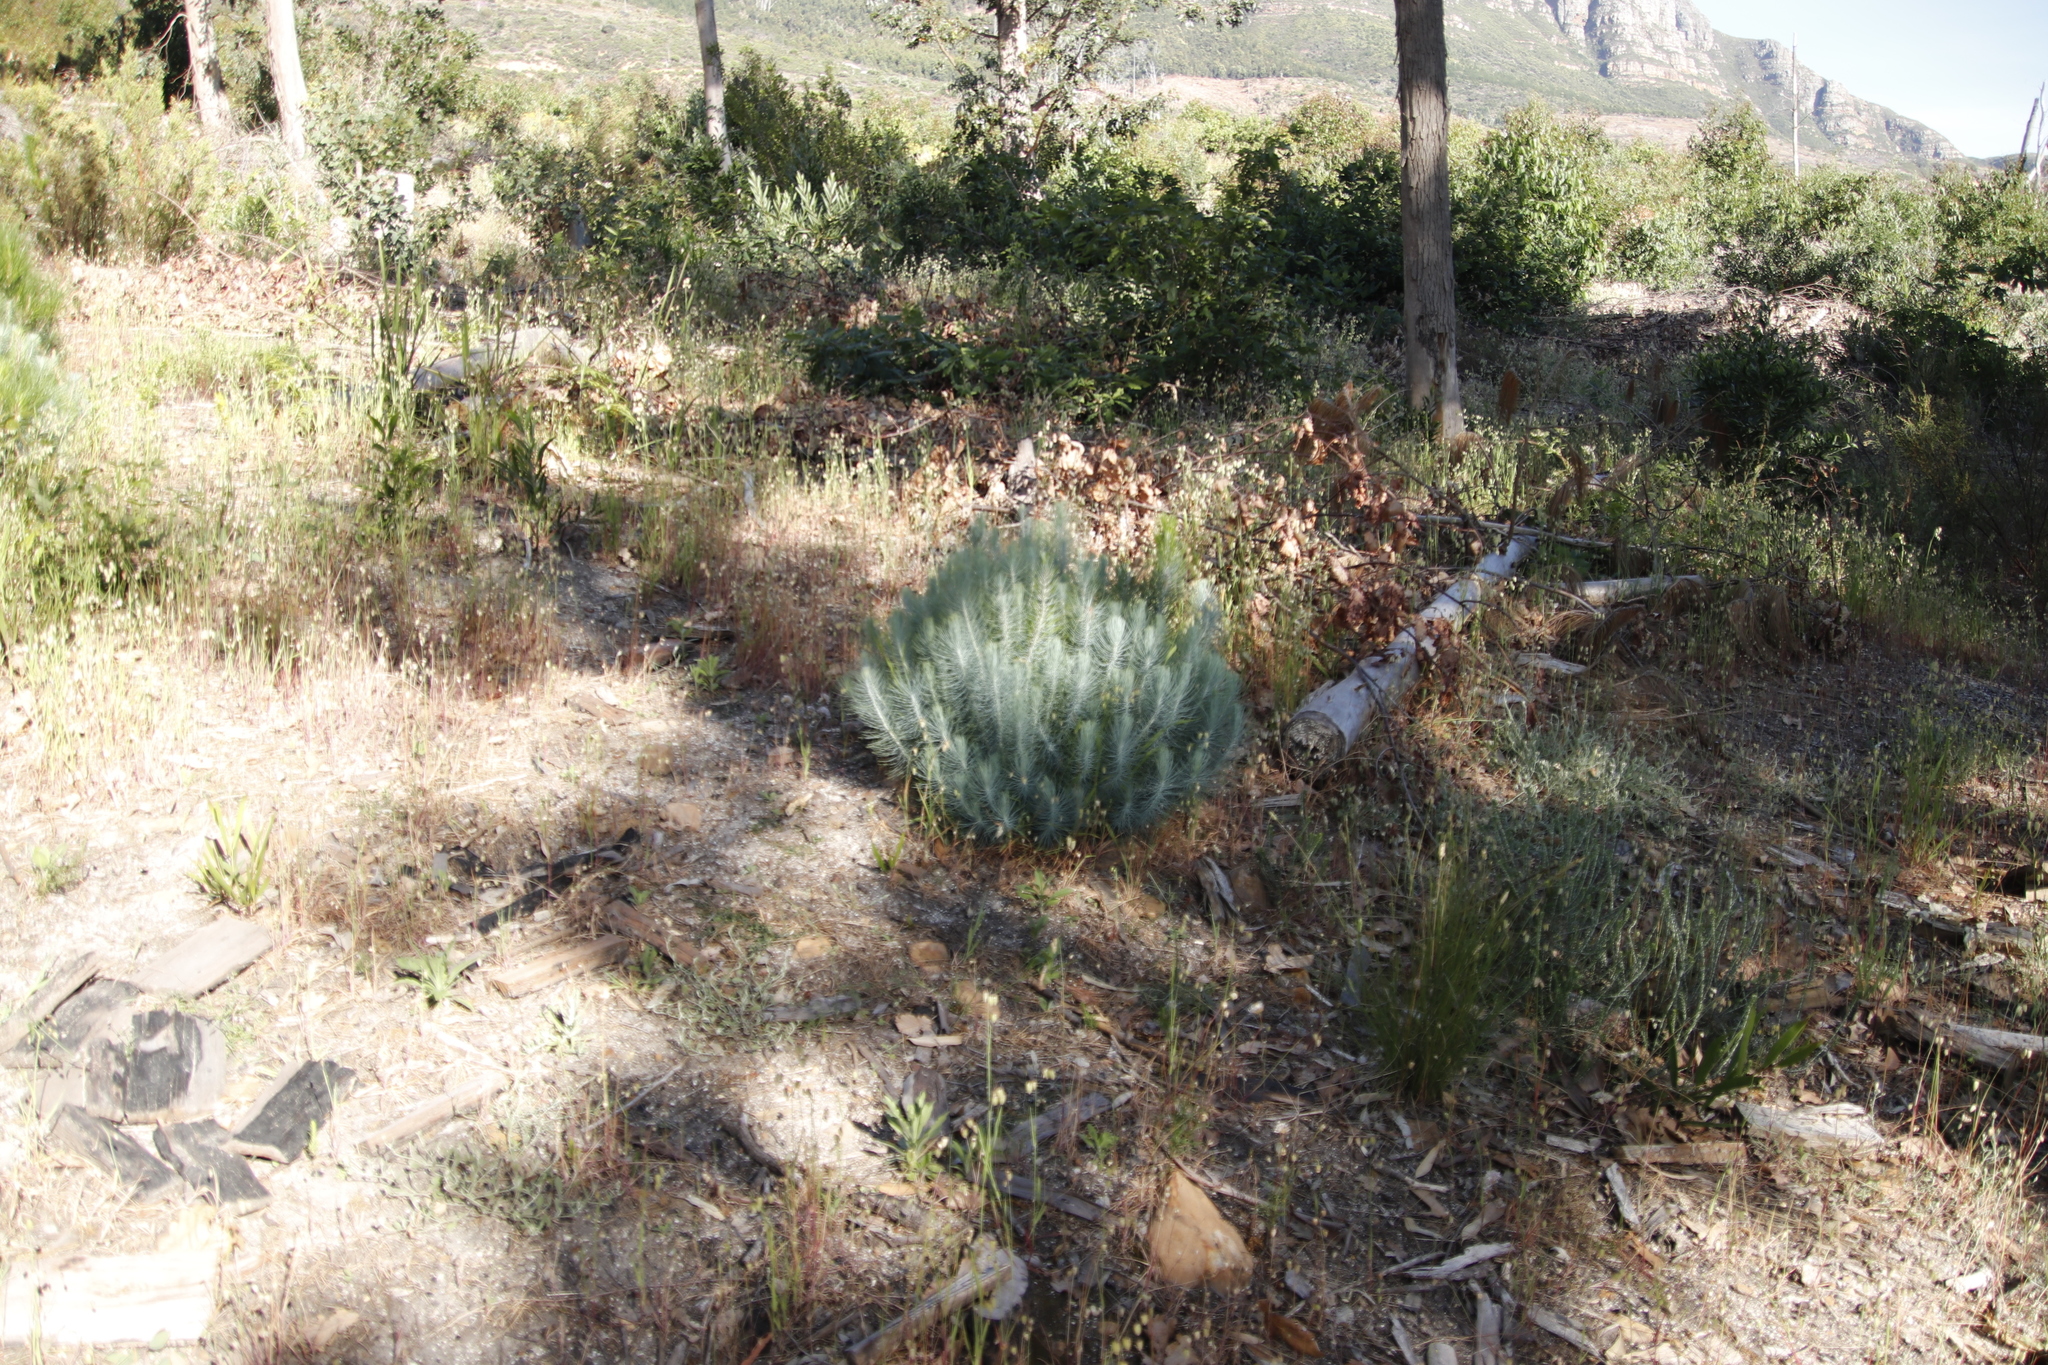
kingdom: Plantae
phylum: Tracheophyta
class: Pinopsida
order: Pinales
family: Pinaceae
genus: Pinus
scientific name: Pinus canariensis
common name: Canary islands pine
